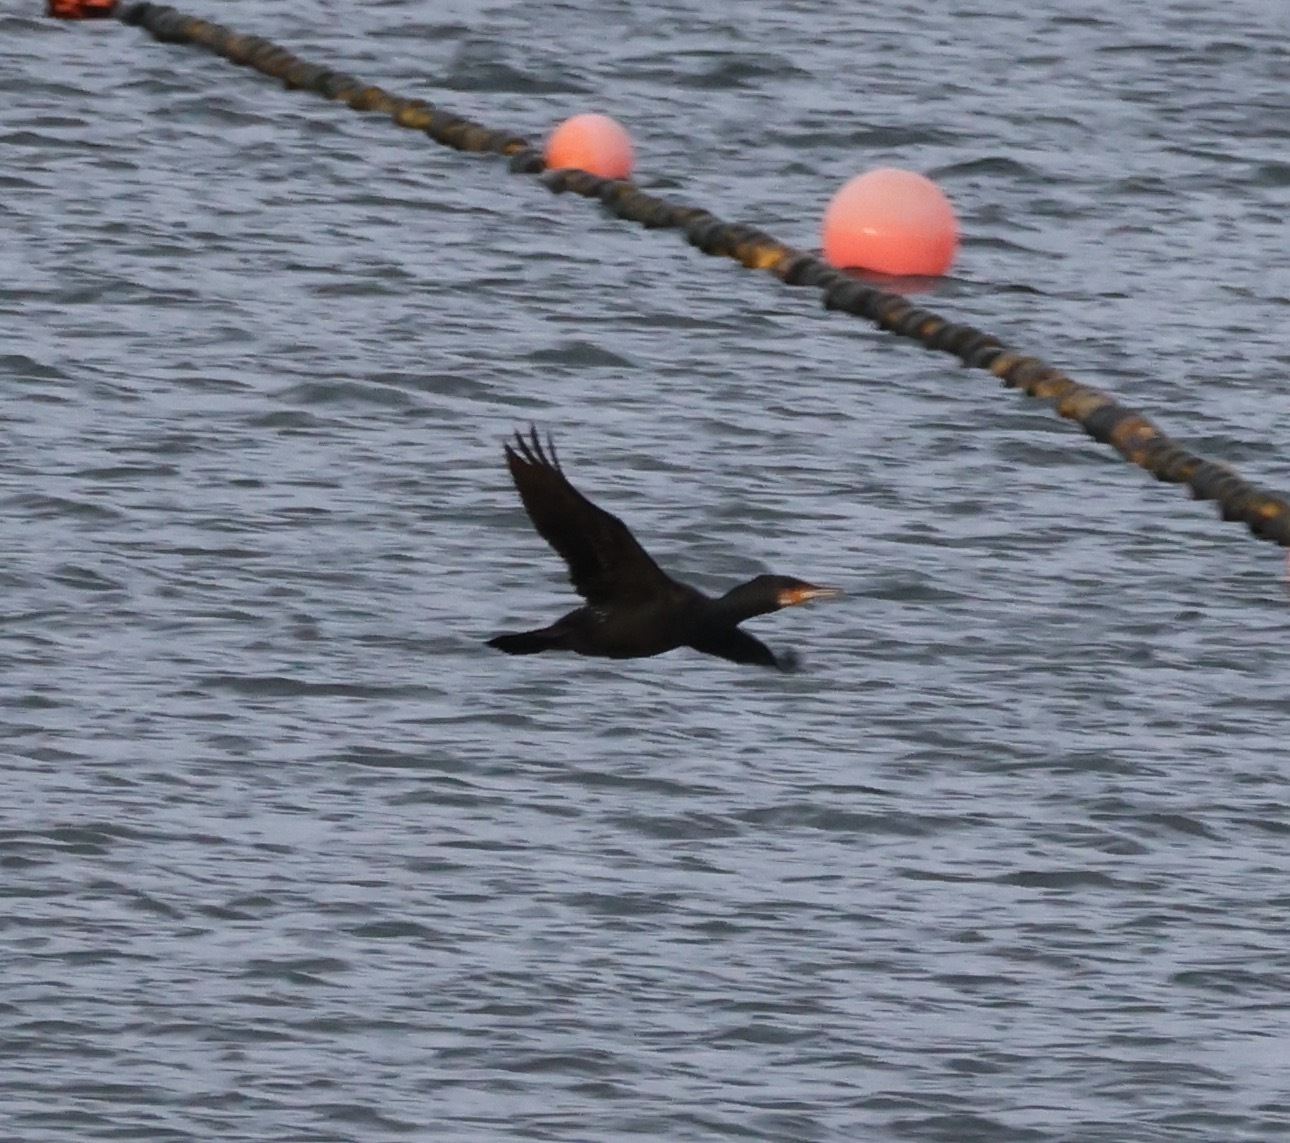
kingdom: Animalia
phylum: Chordata
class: Aves
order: Suliformes
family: Phalacrocoracidae
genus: Phalacrocorax
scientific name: Phalacrocorax carbo
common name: Great cormorant
